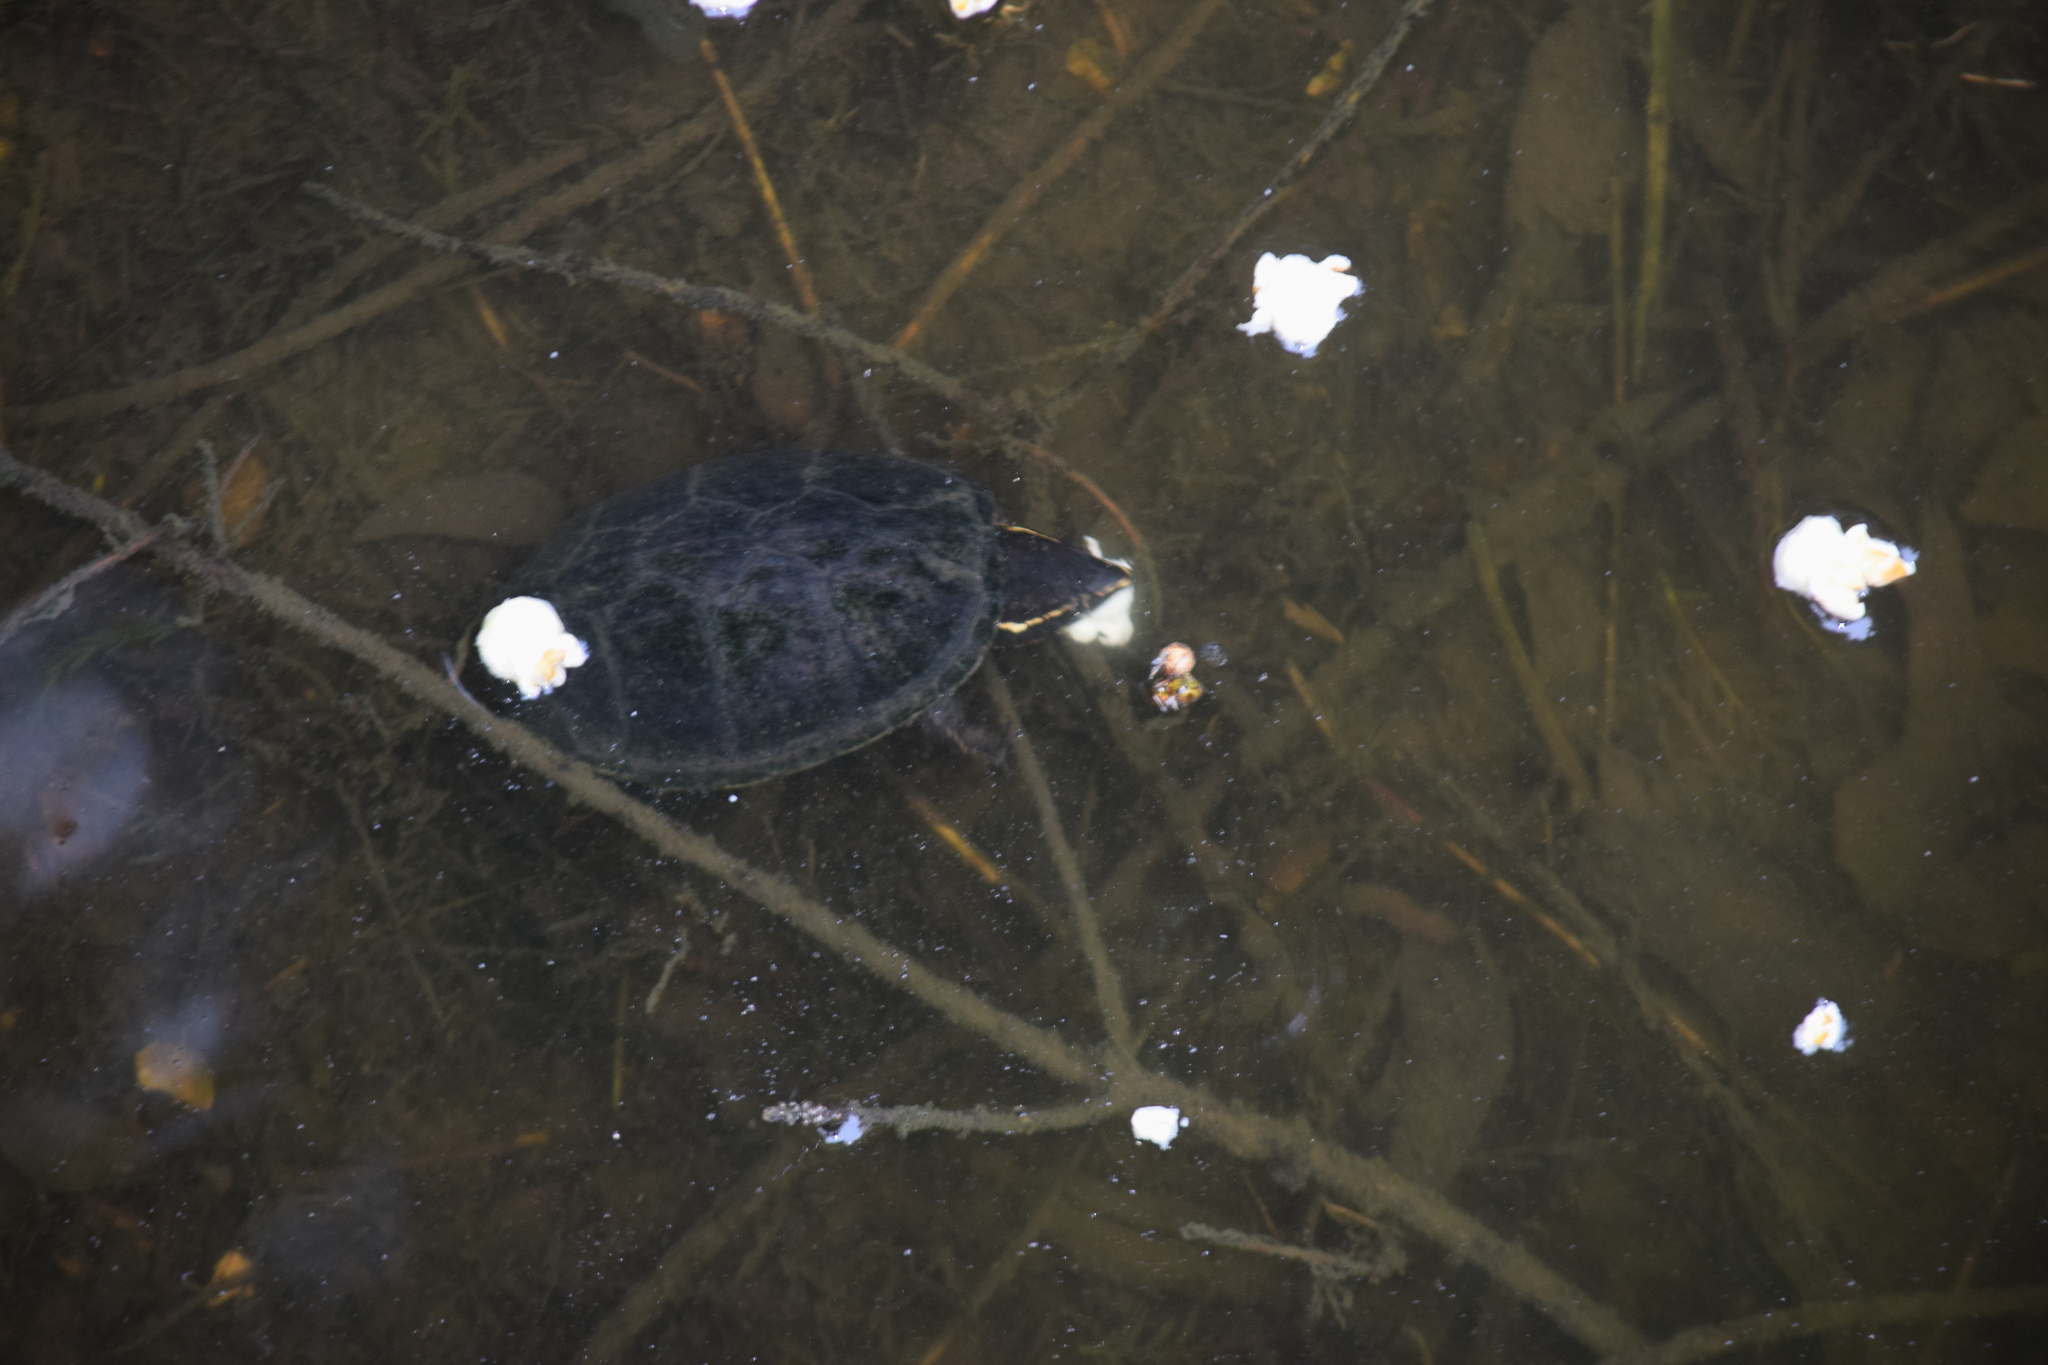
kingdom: Animalia
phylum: Chordata
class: Testudines
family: Kinosternidae
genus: Sternotherus
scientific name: Sternotherus odoratus
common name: Common musk turtle
